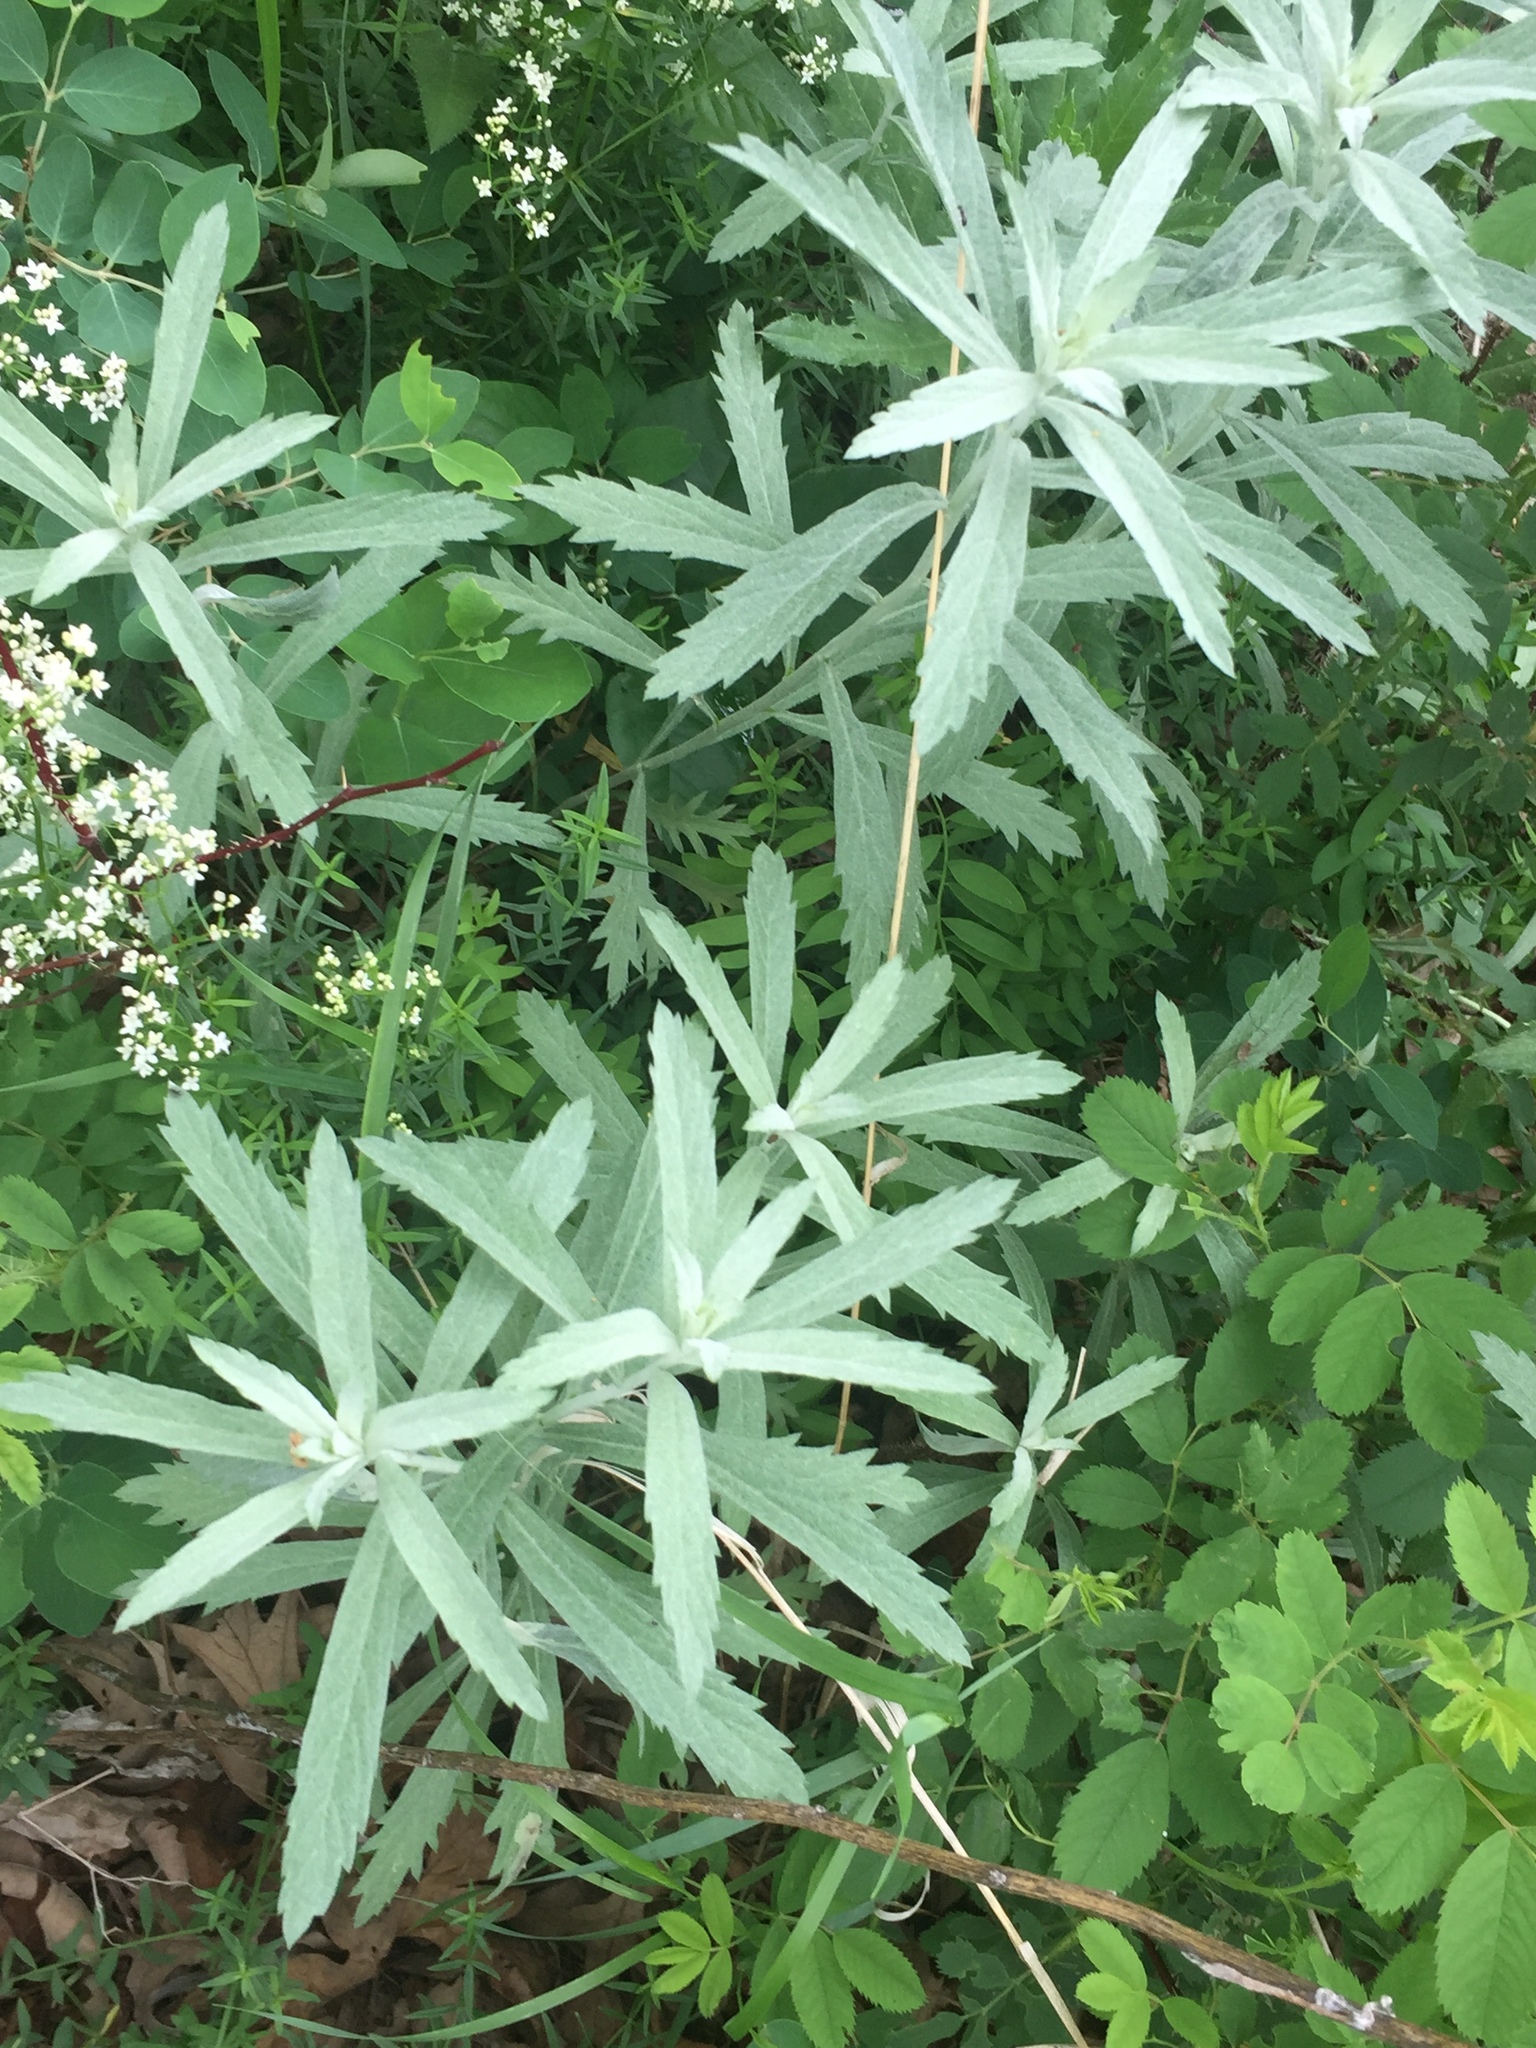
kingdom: Plantae
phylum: Tracheophyta
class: Magnoliopsida
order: Asterales
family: Asteraceae
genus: Artemisia
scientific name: Artemisia ludoviciana
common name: Western mugwort
